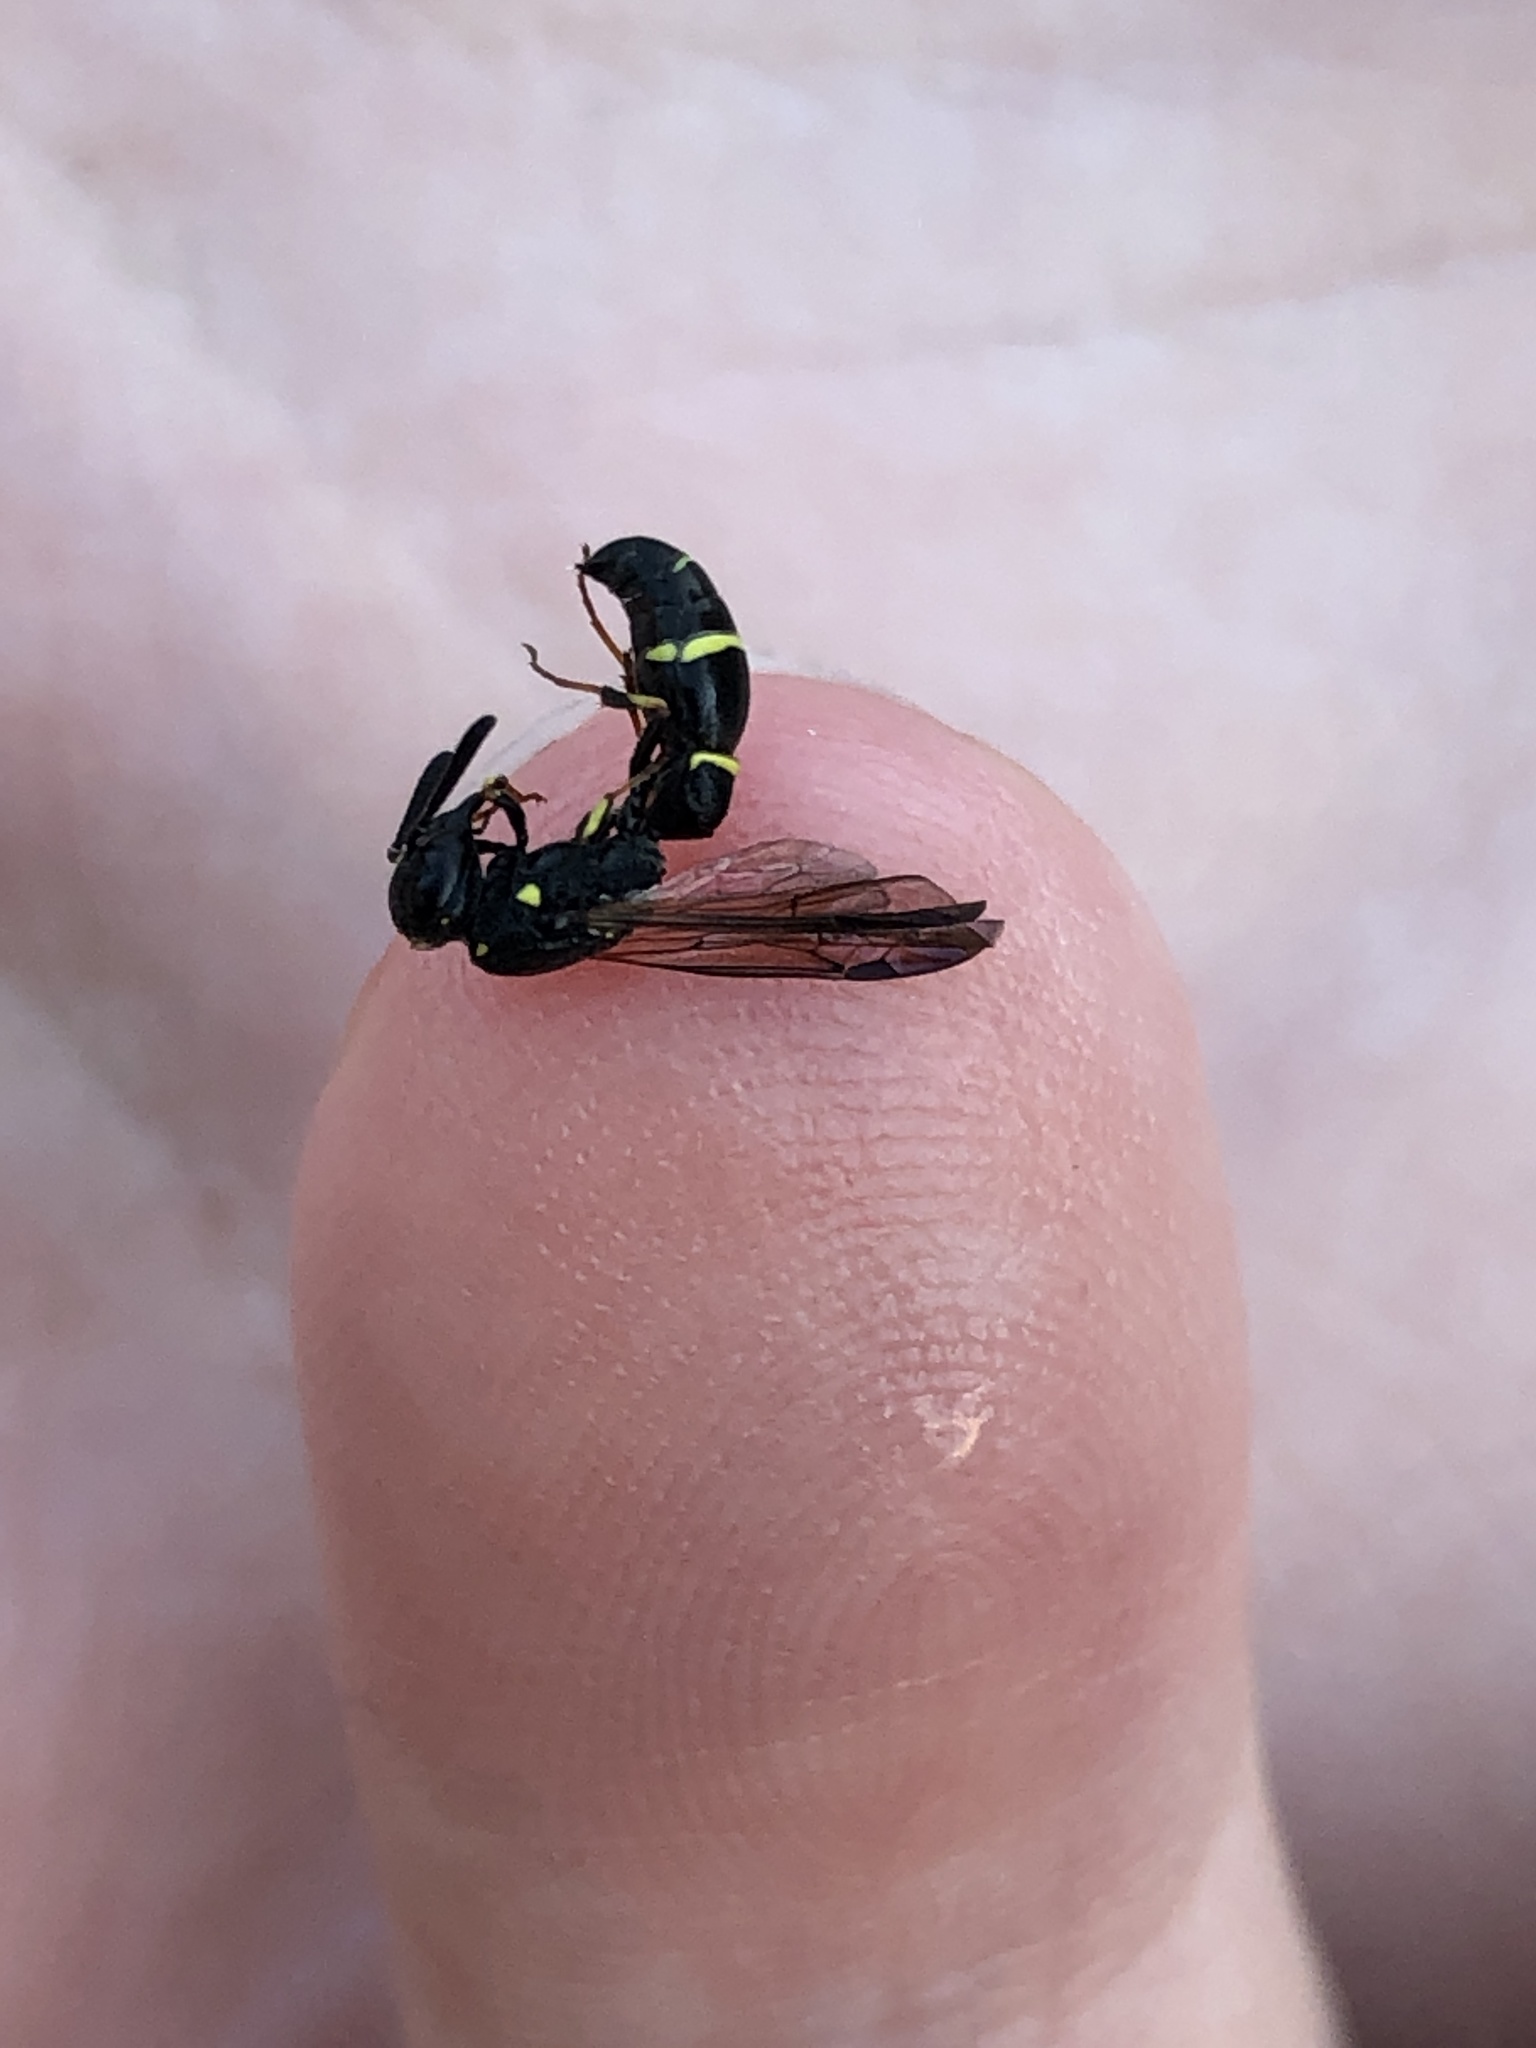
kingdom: Animalia
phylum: Arthropoda
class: Insecta
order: Hymenoptera
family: Eumenidae
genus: Symmorphus
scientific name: Symmorphus
